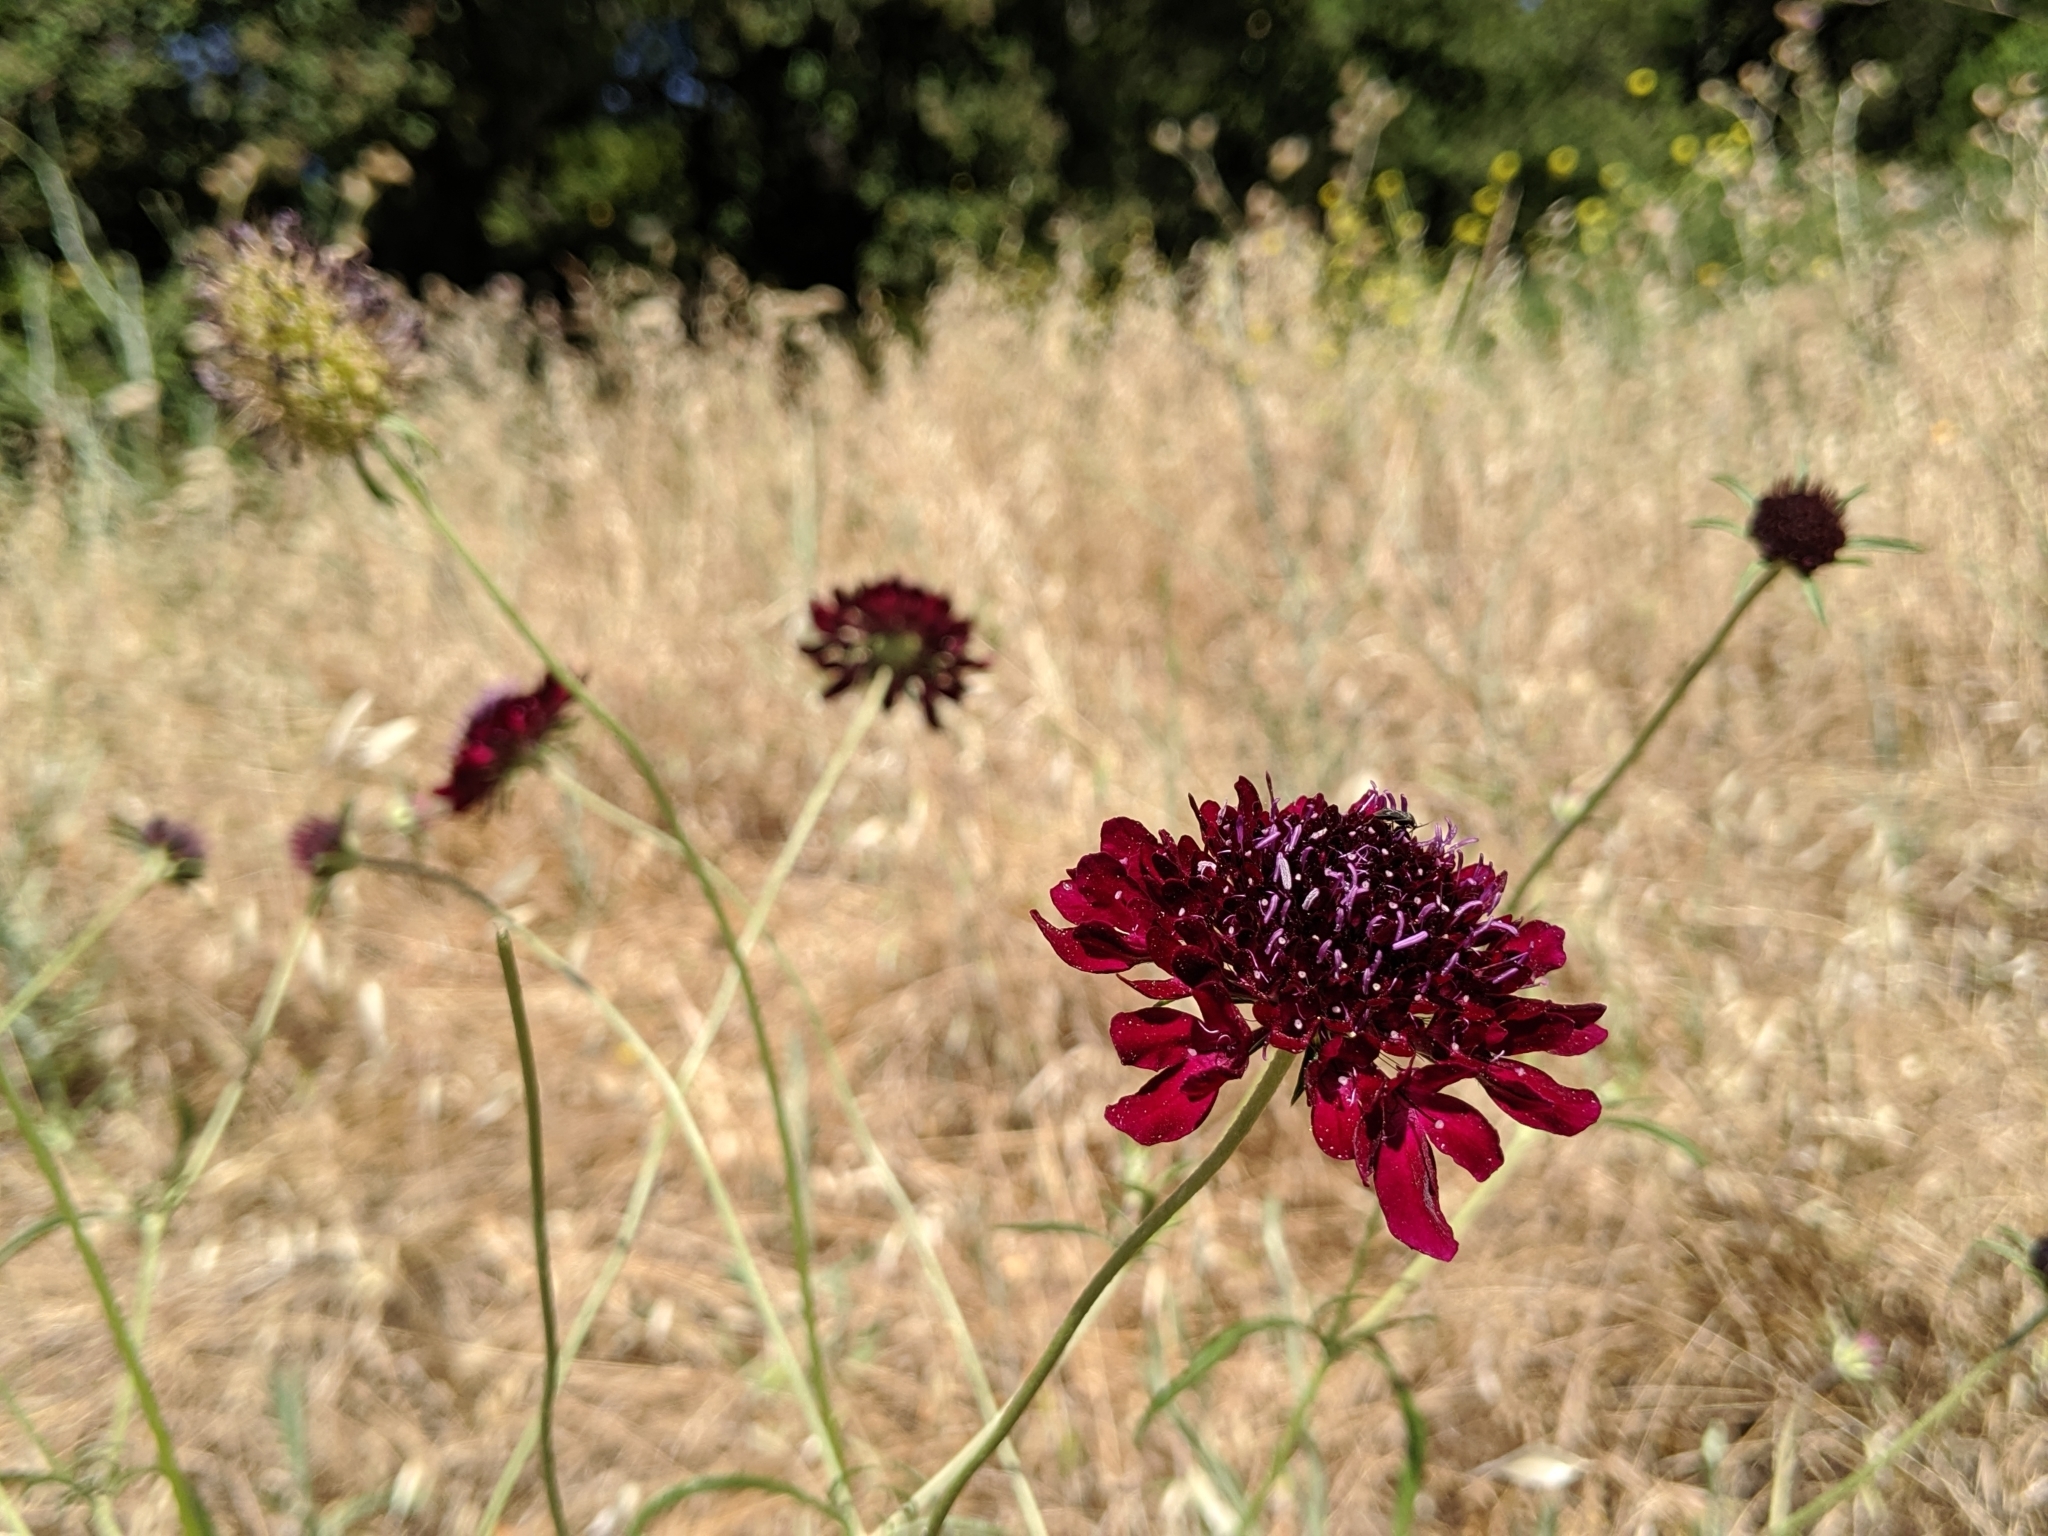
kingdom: Plantae
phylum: Tracheophyta
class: Magnoliopsida
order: Dipsacales
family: Caprifoliaceae
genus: Sixalix
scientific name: Sixalix atropurpurea
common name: Sweet scabious
